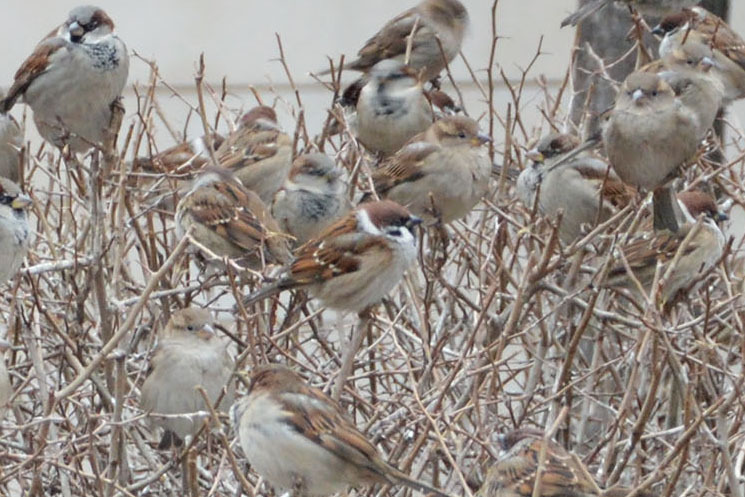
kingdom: Animalia
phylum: Chordata
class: Aves
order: Passeriformes
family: Passeridae
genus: Passer
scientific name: Passer montanus
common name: Eurasian tree sparrow
